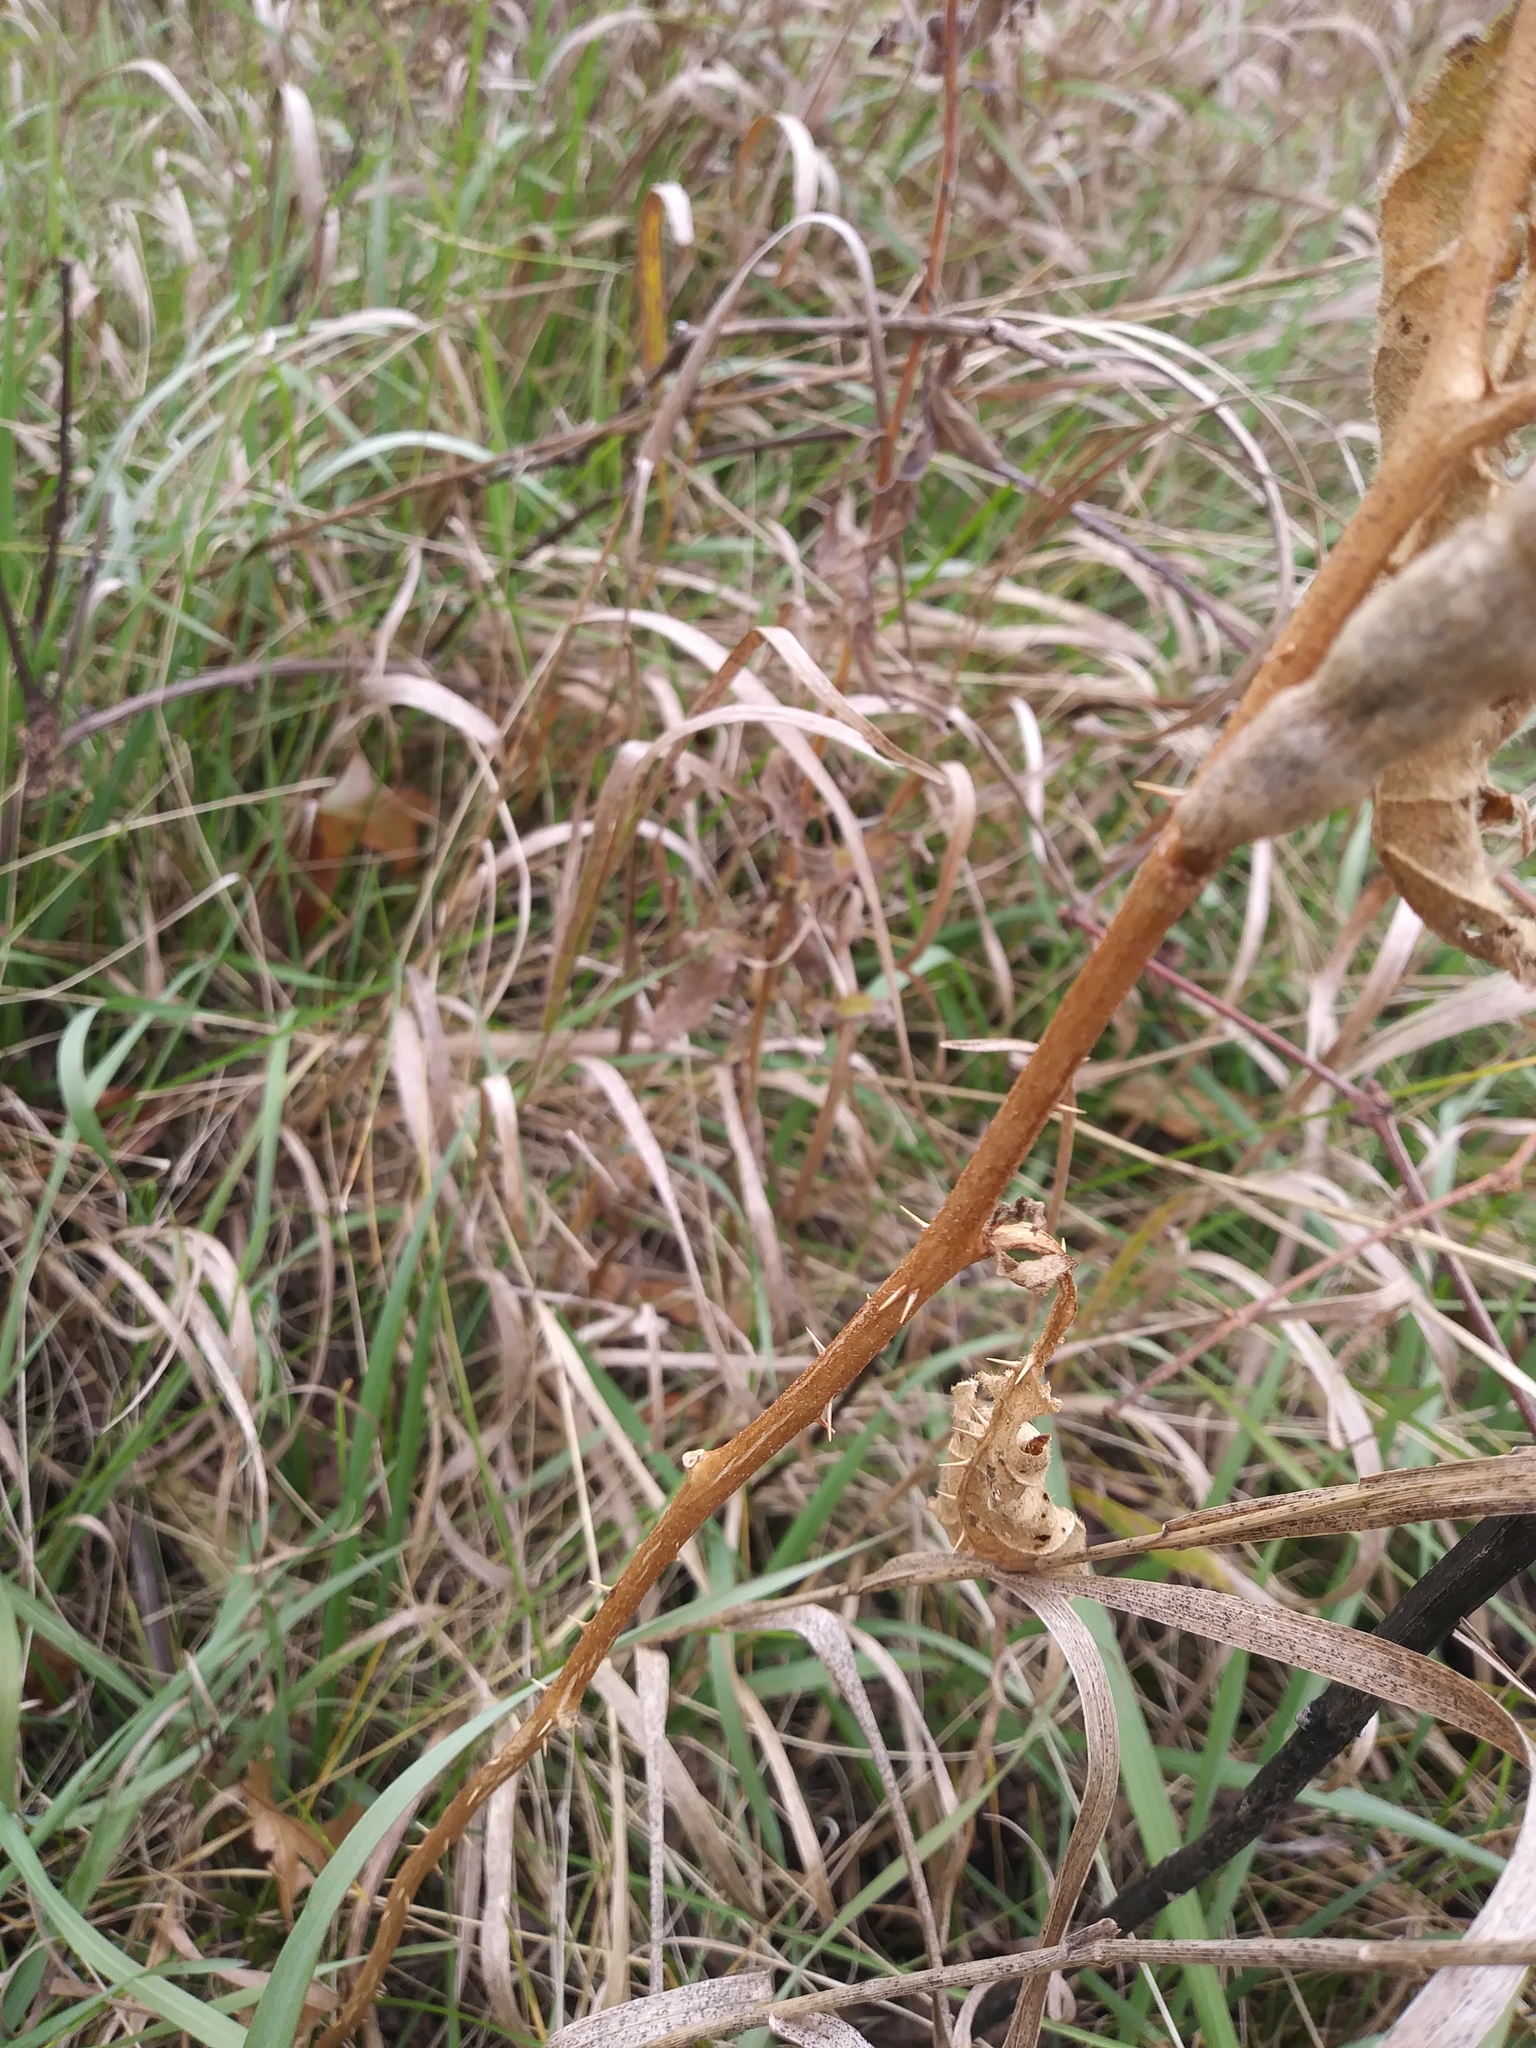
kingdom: Plantae
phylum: Tracheophyta
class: Magnoliopsida
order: Solanales
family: Solanaceae
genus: Solanum
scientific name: Solanum carolinense
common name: Horse-nettle
